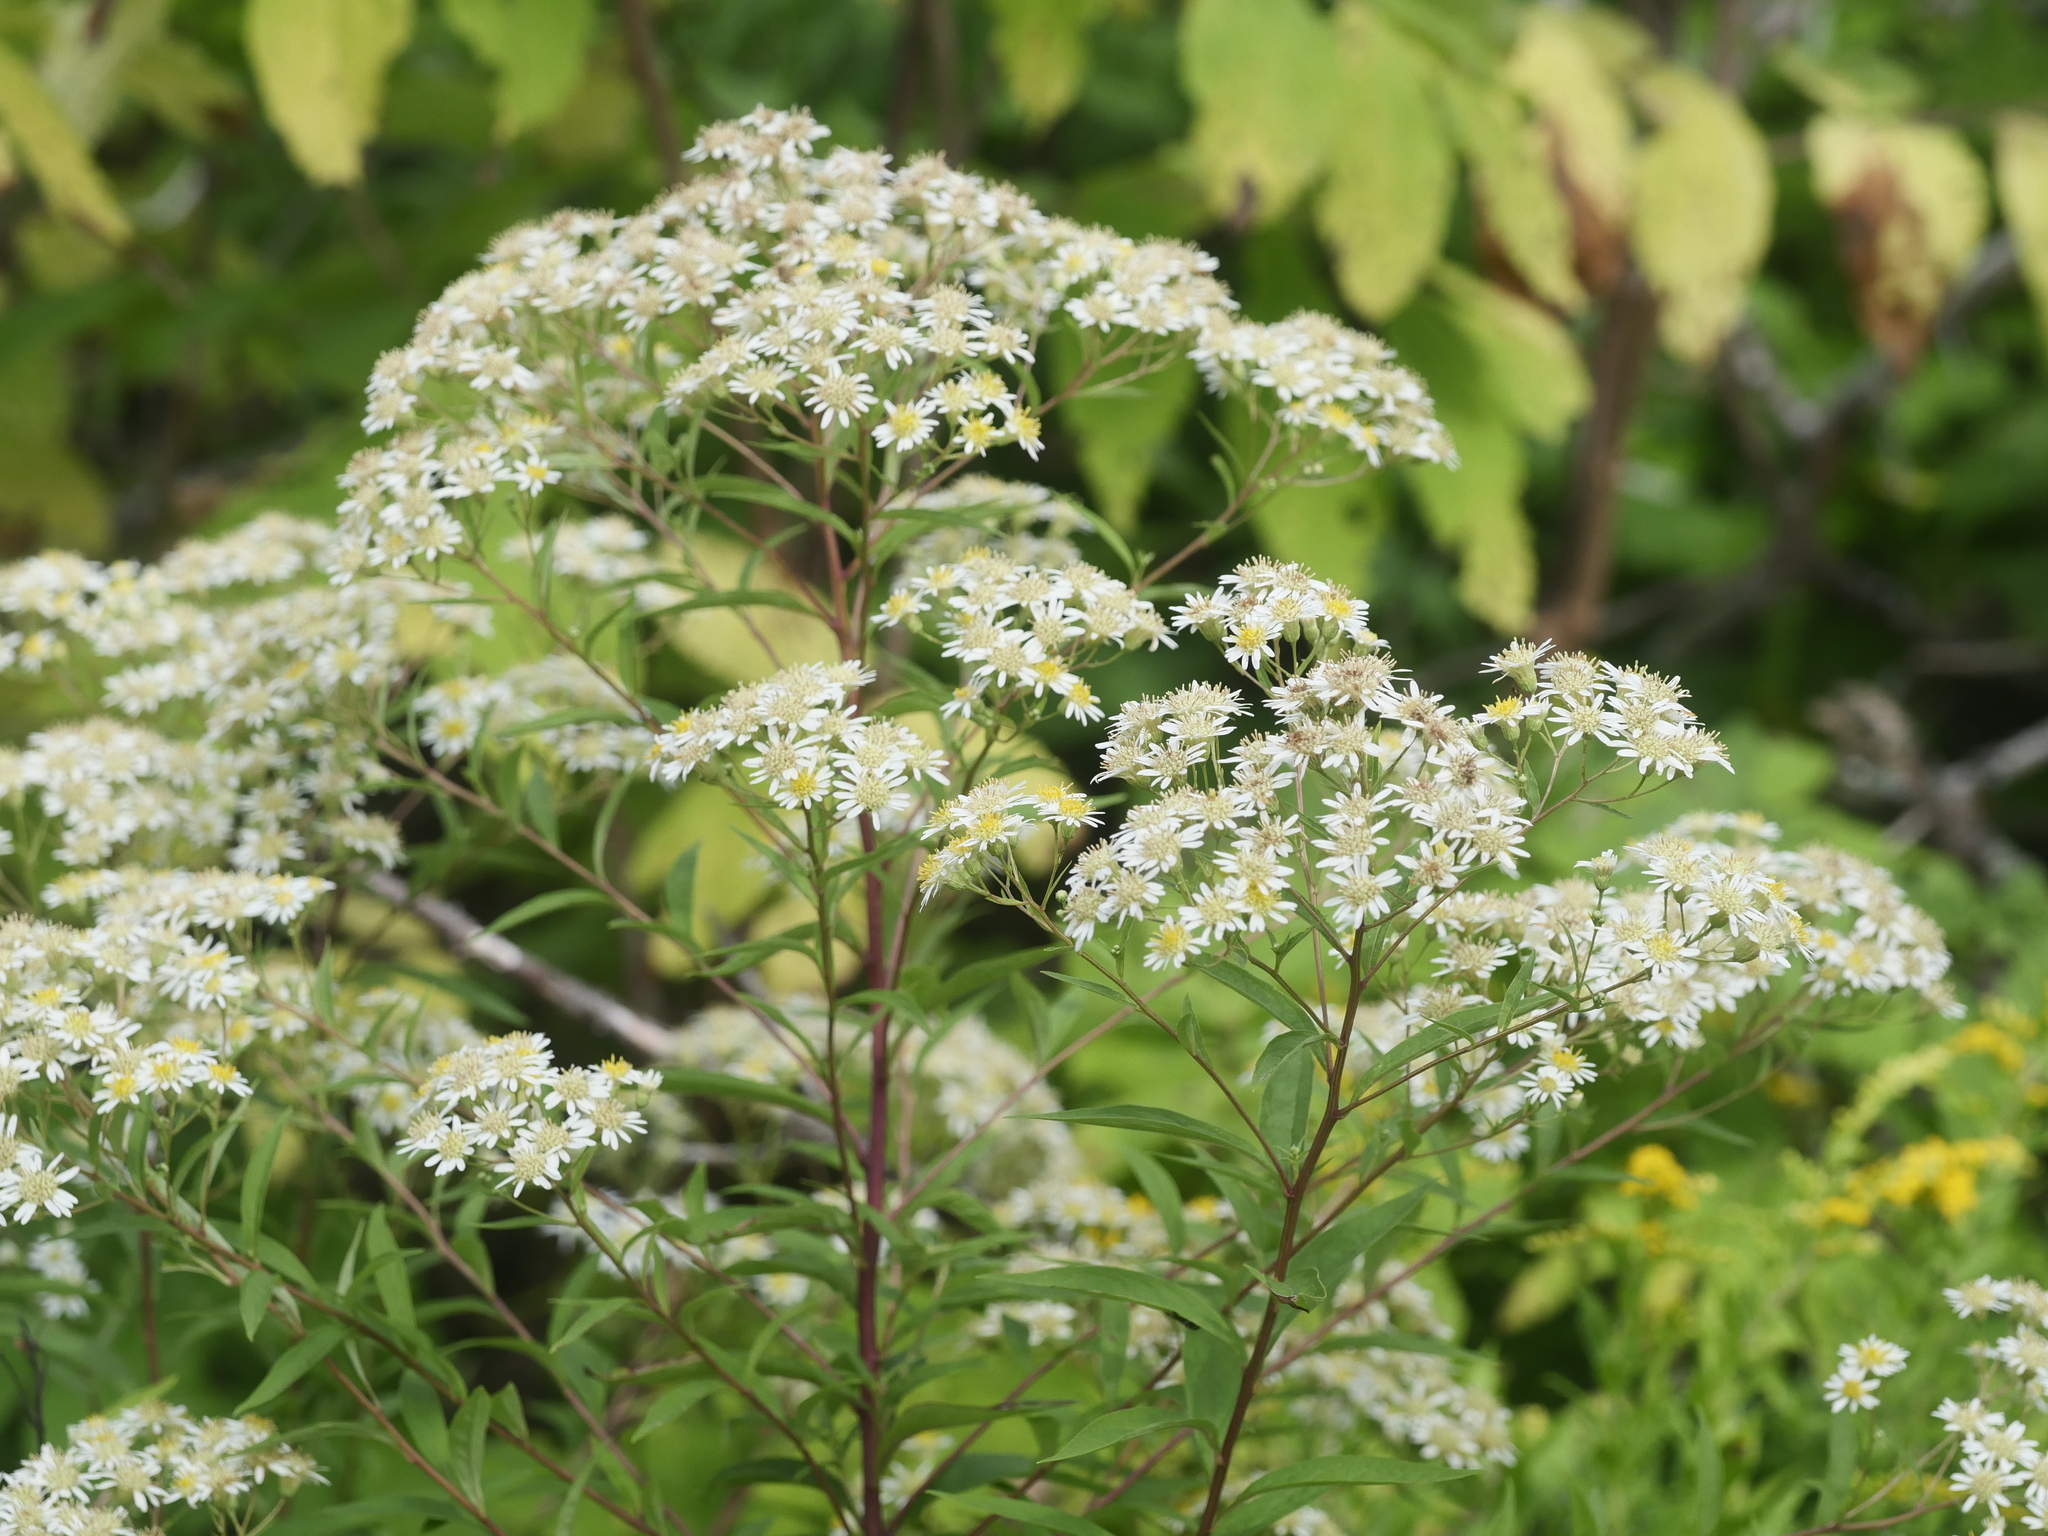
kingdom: Plantae
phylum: Tracheophyta
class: Magnoliopsida
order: Asterales
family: Asteraceae
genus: Doellingeria
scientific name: Doellingeria umbellata
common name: Flat-top white aster
